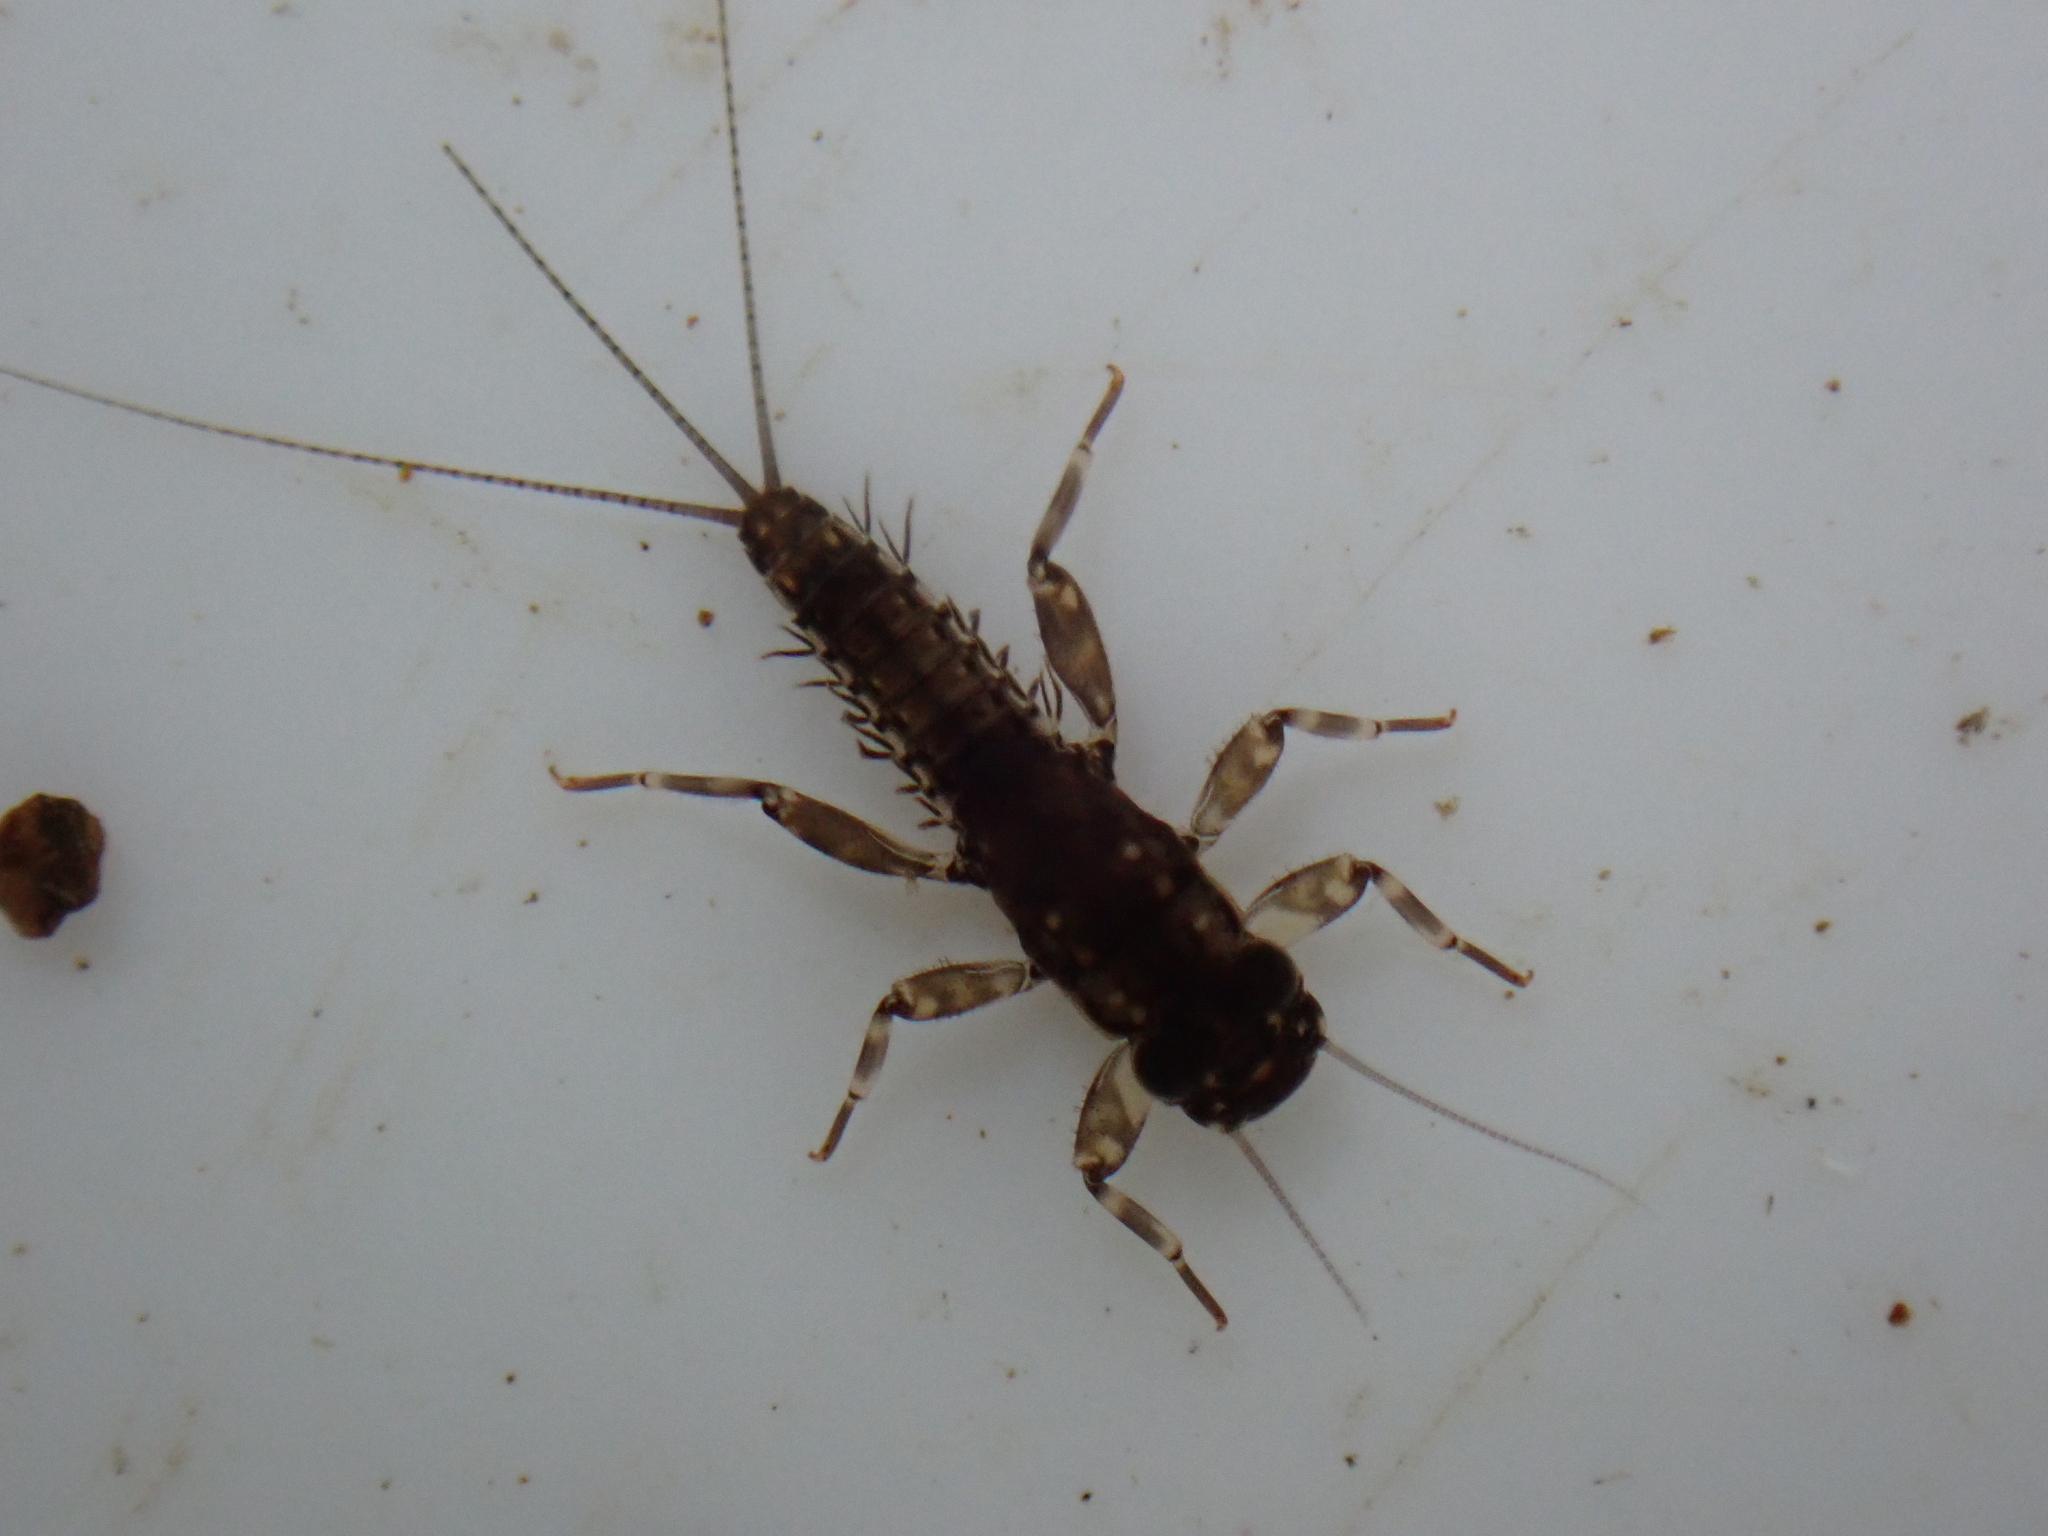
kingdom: Animalia
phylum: Arthropoda
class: Insecta
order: Ephemeroptera
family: Leptophlebiidae
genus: Austroclima
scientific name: Austroclima sepia
